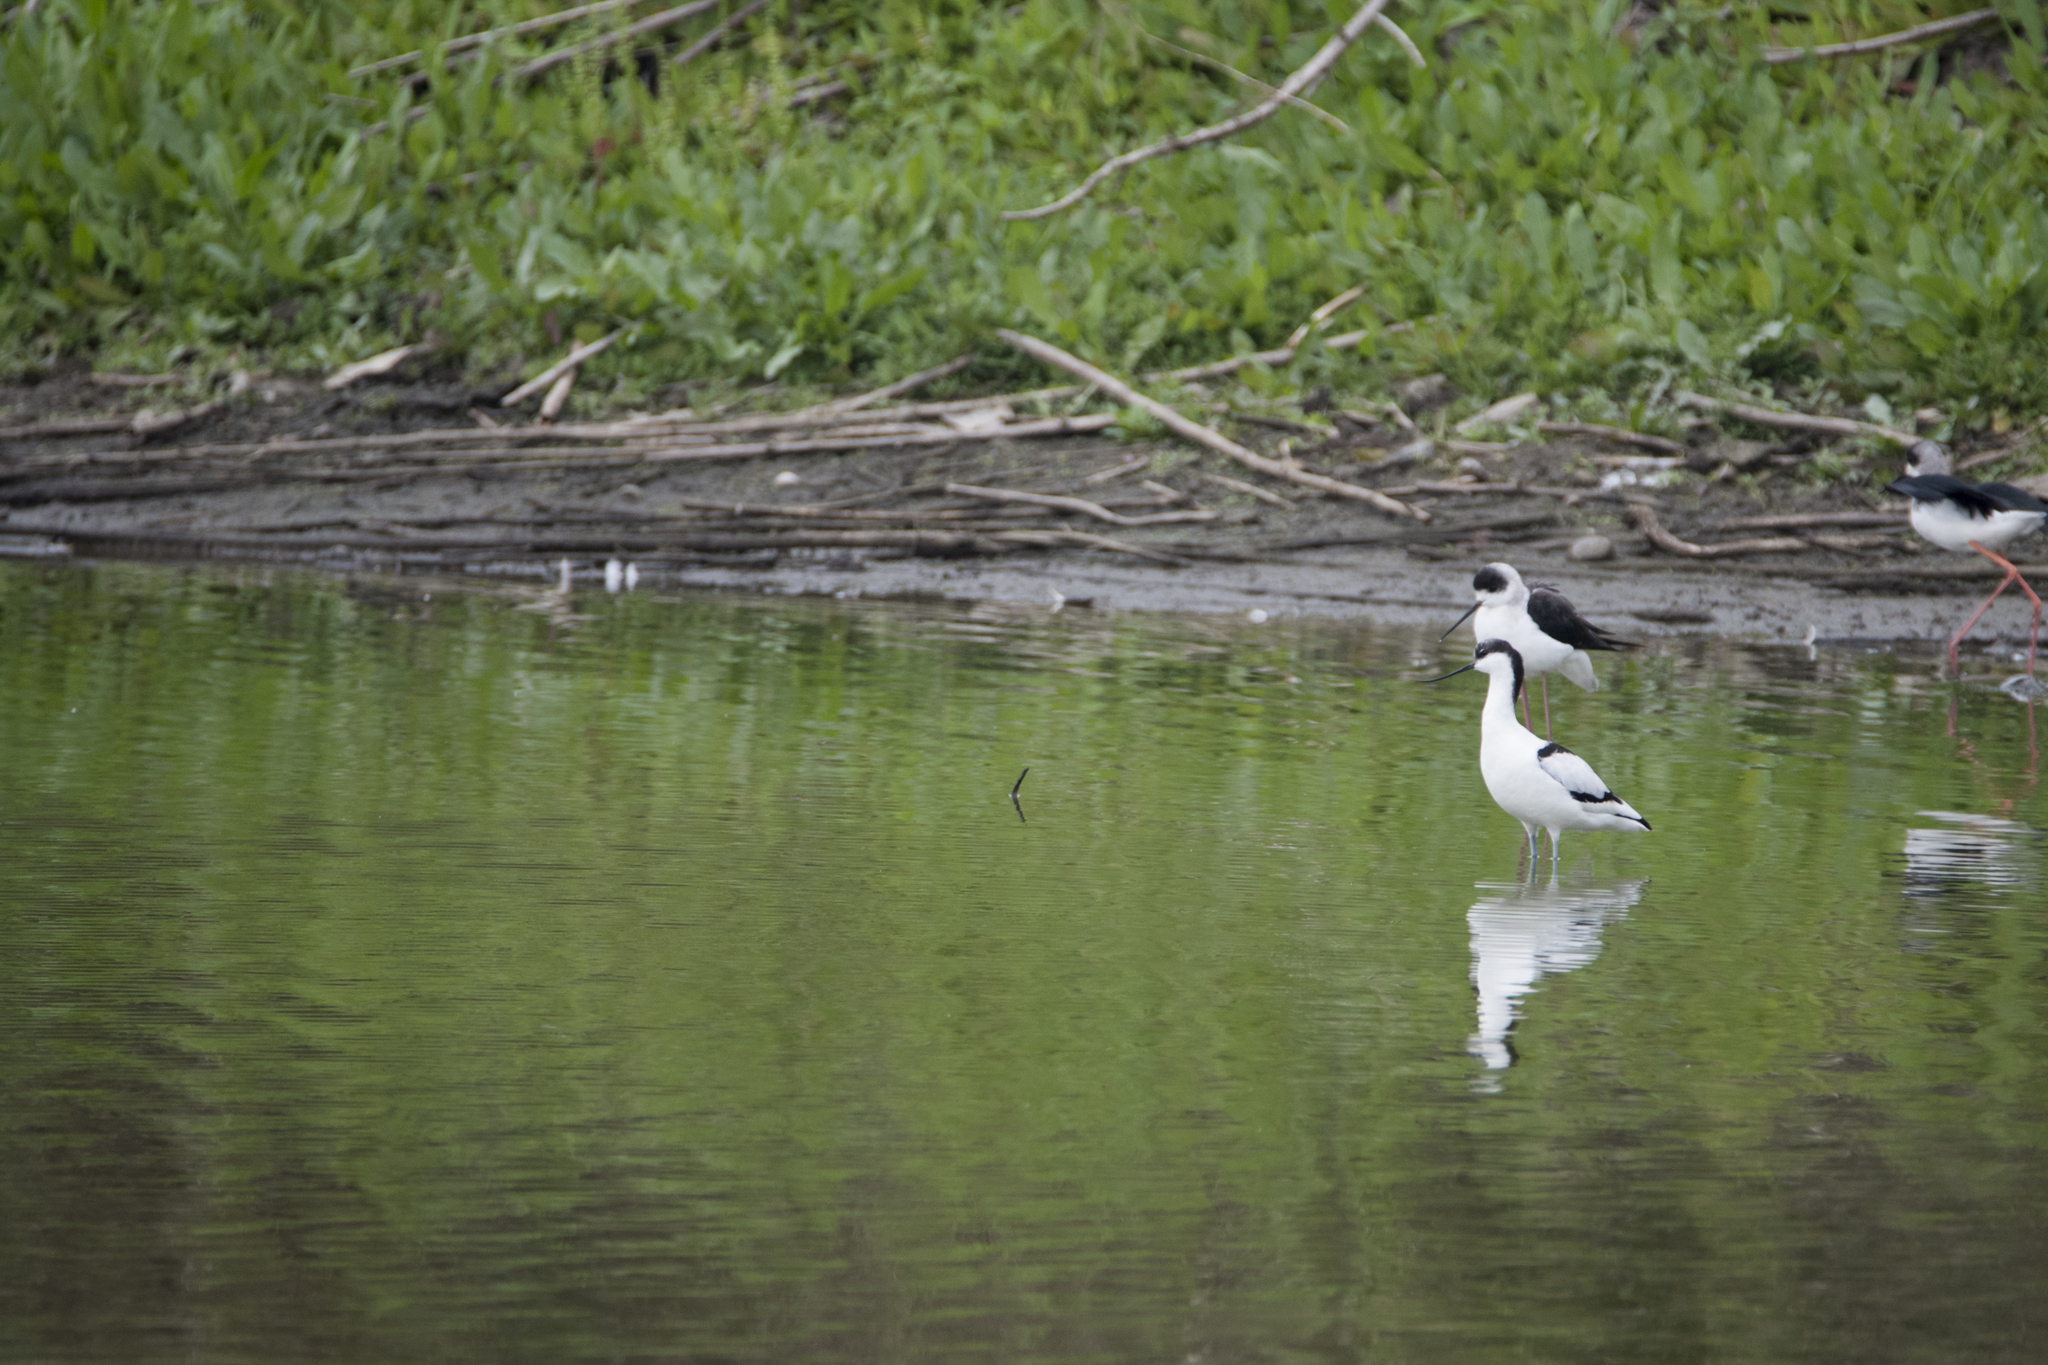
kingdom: Animalia
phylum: Chordata
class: Aves
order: Charadriiformes
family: Recurvirostridae
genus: Recurvirostra
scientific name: Recurvirostra avosetta
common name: Pied avocet
